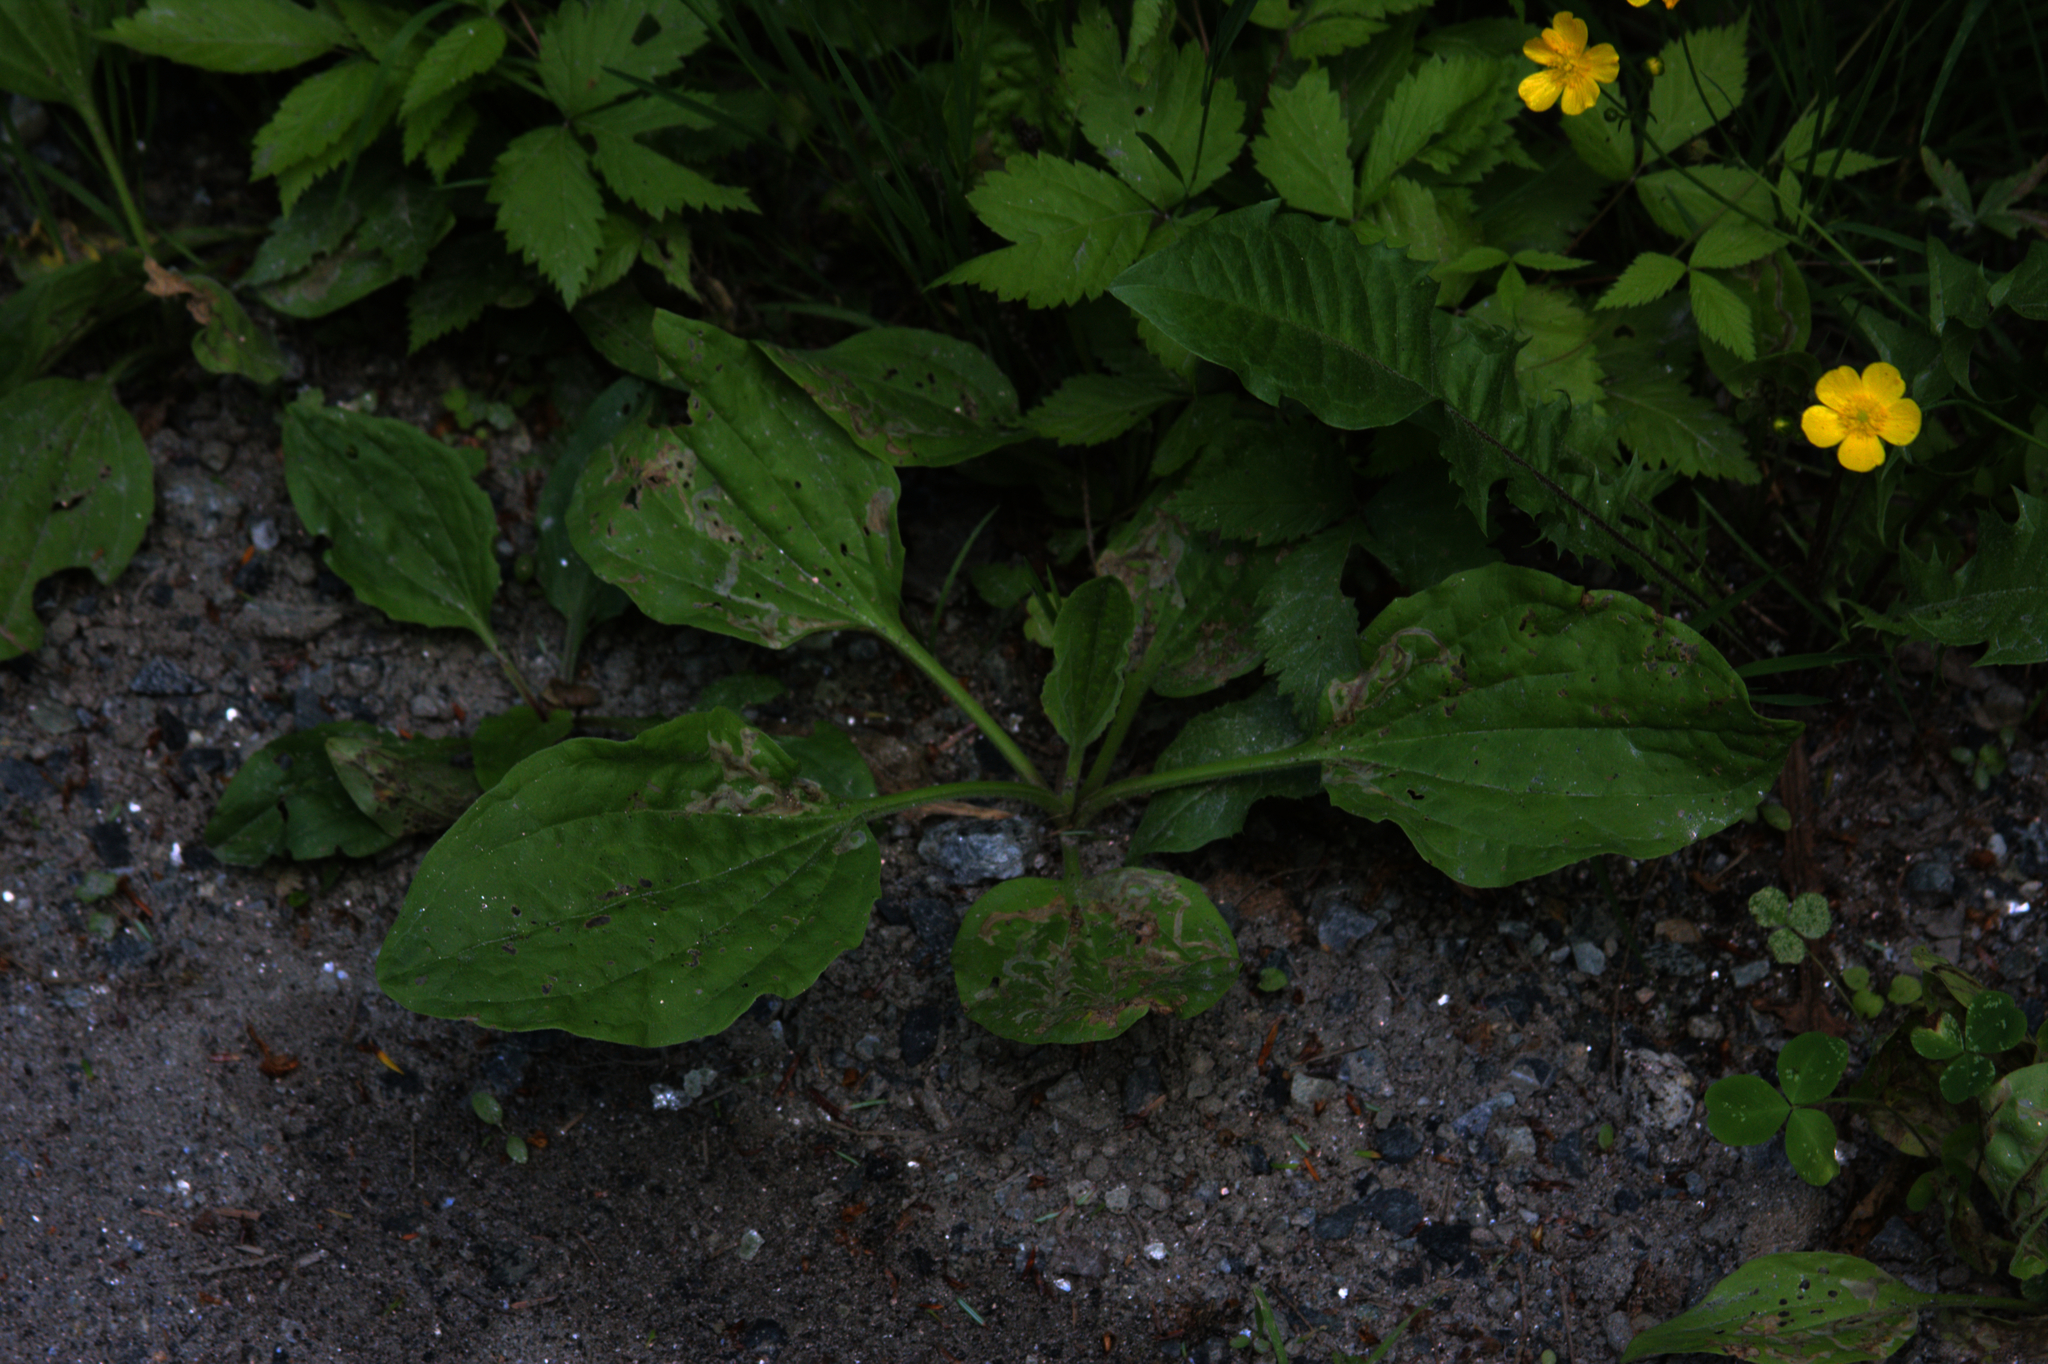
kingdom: Plantae
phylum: Tracheophyta
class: Magnoliopsida
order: Lamiales
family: Plantaginaceae
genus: Plantago
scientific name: Plantago major
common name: Common plantain
